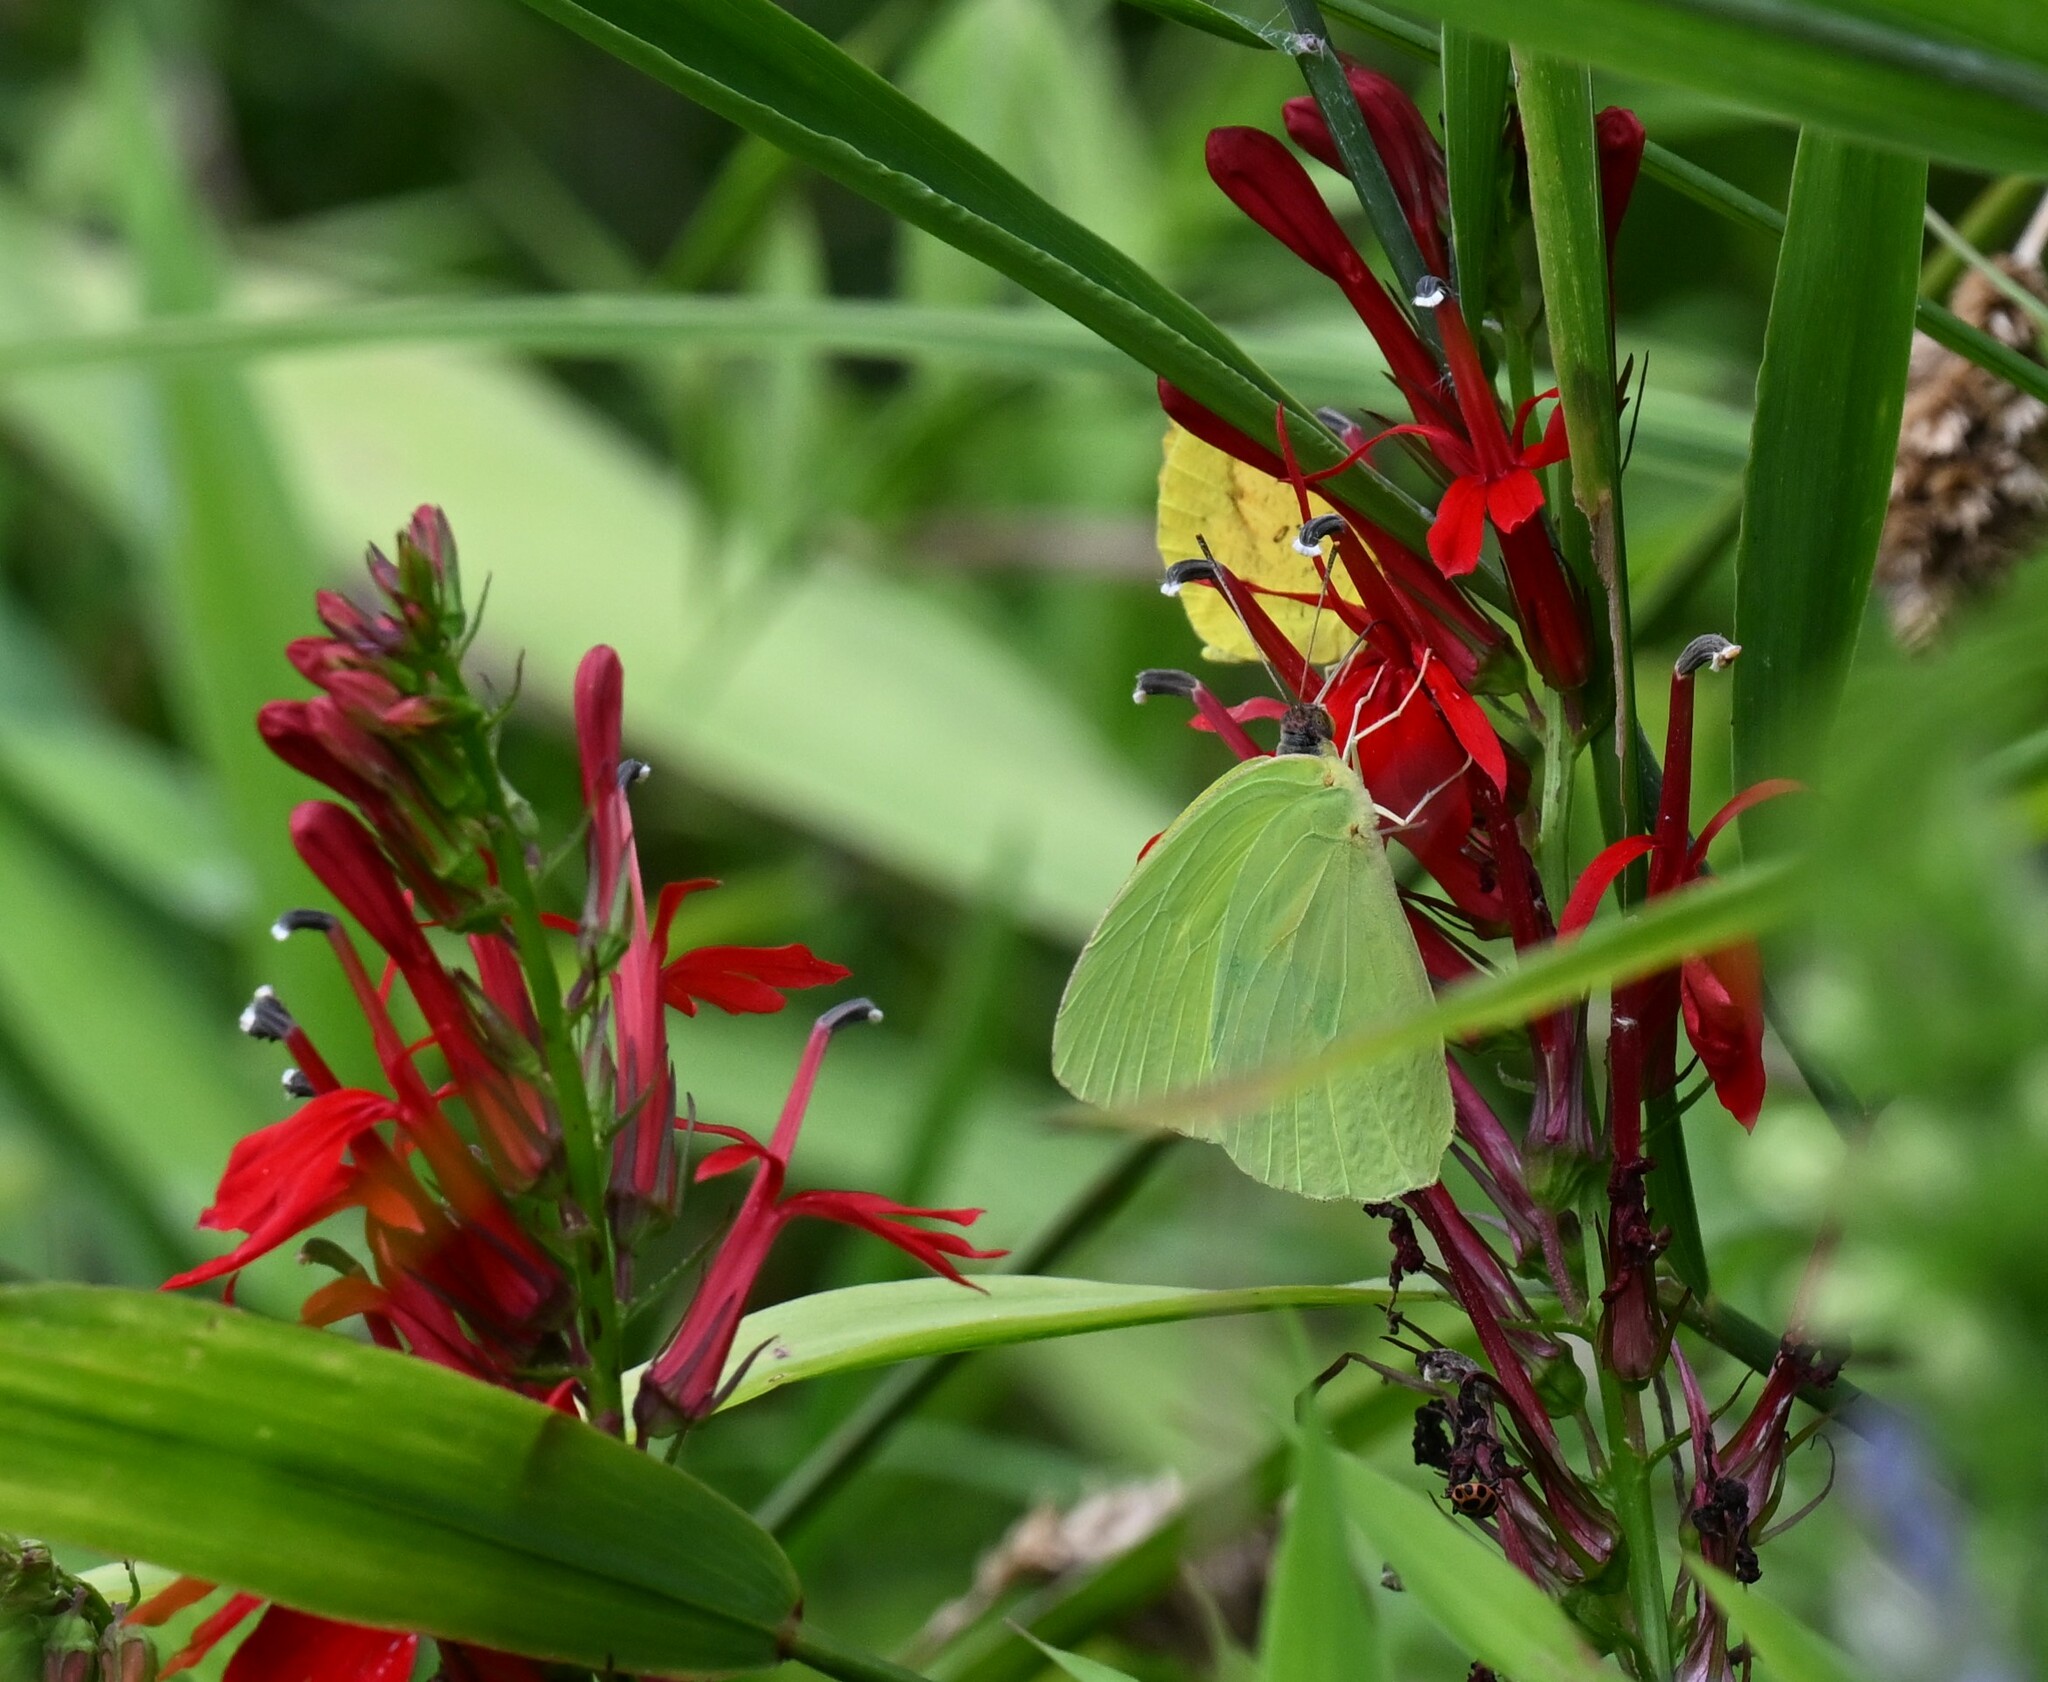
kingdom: Animalia
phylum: Arthropoda
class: Insecta
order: Lepidoptera
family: Pieridae
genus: Phoebis
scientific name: Phoebis sennae
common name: Cloudless sulphur
